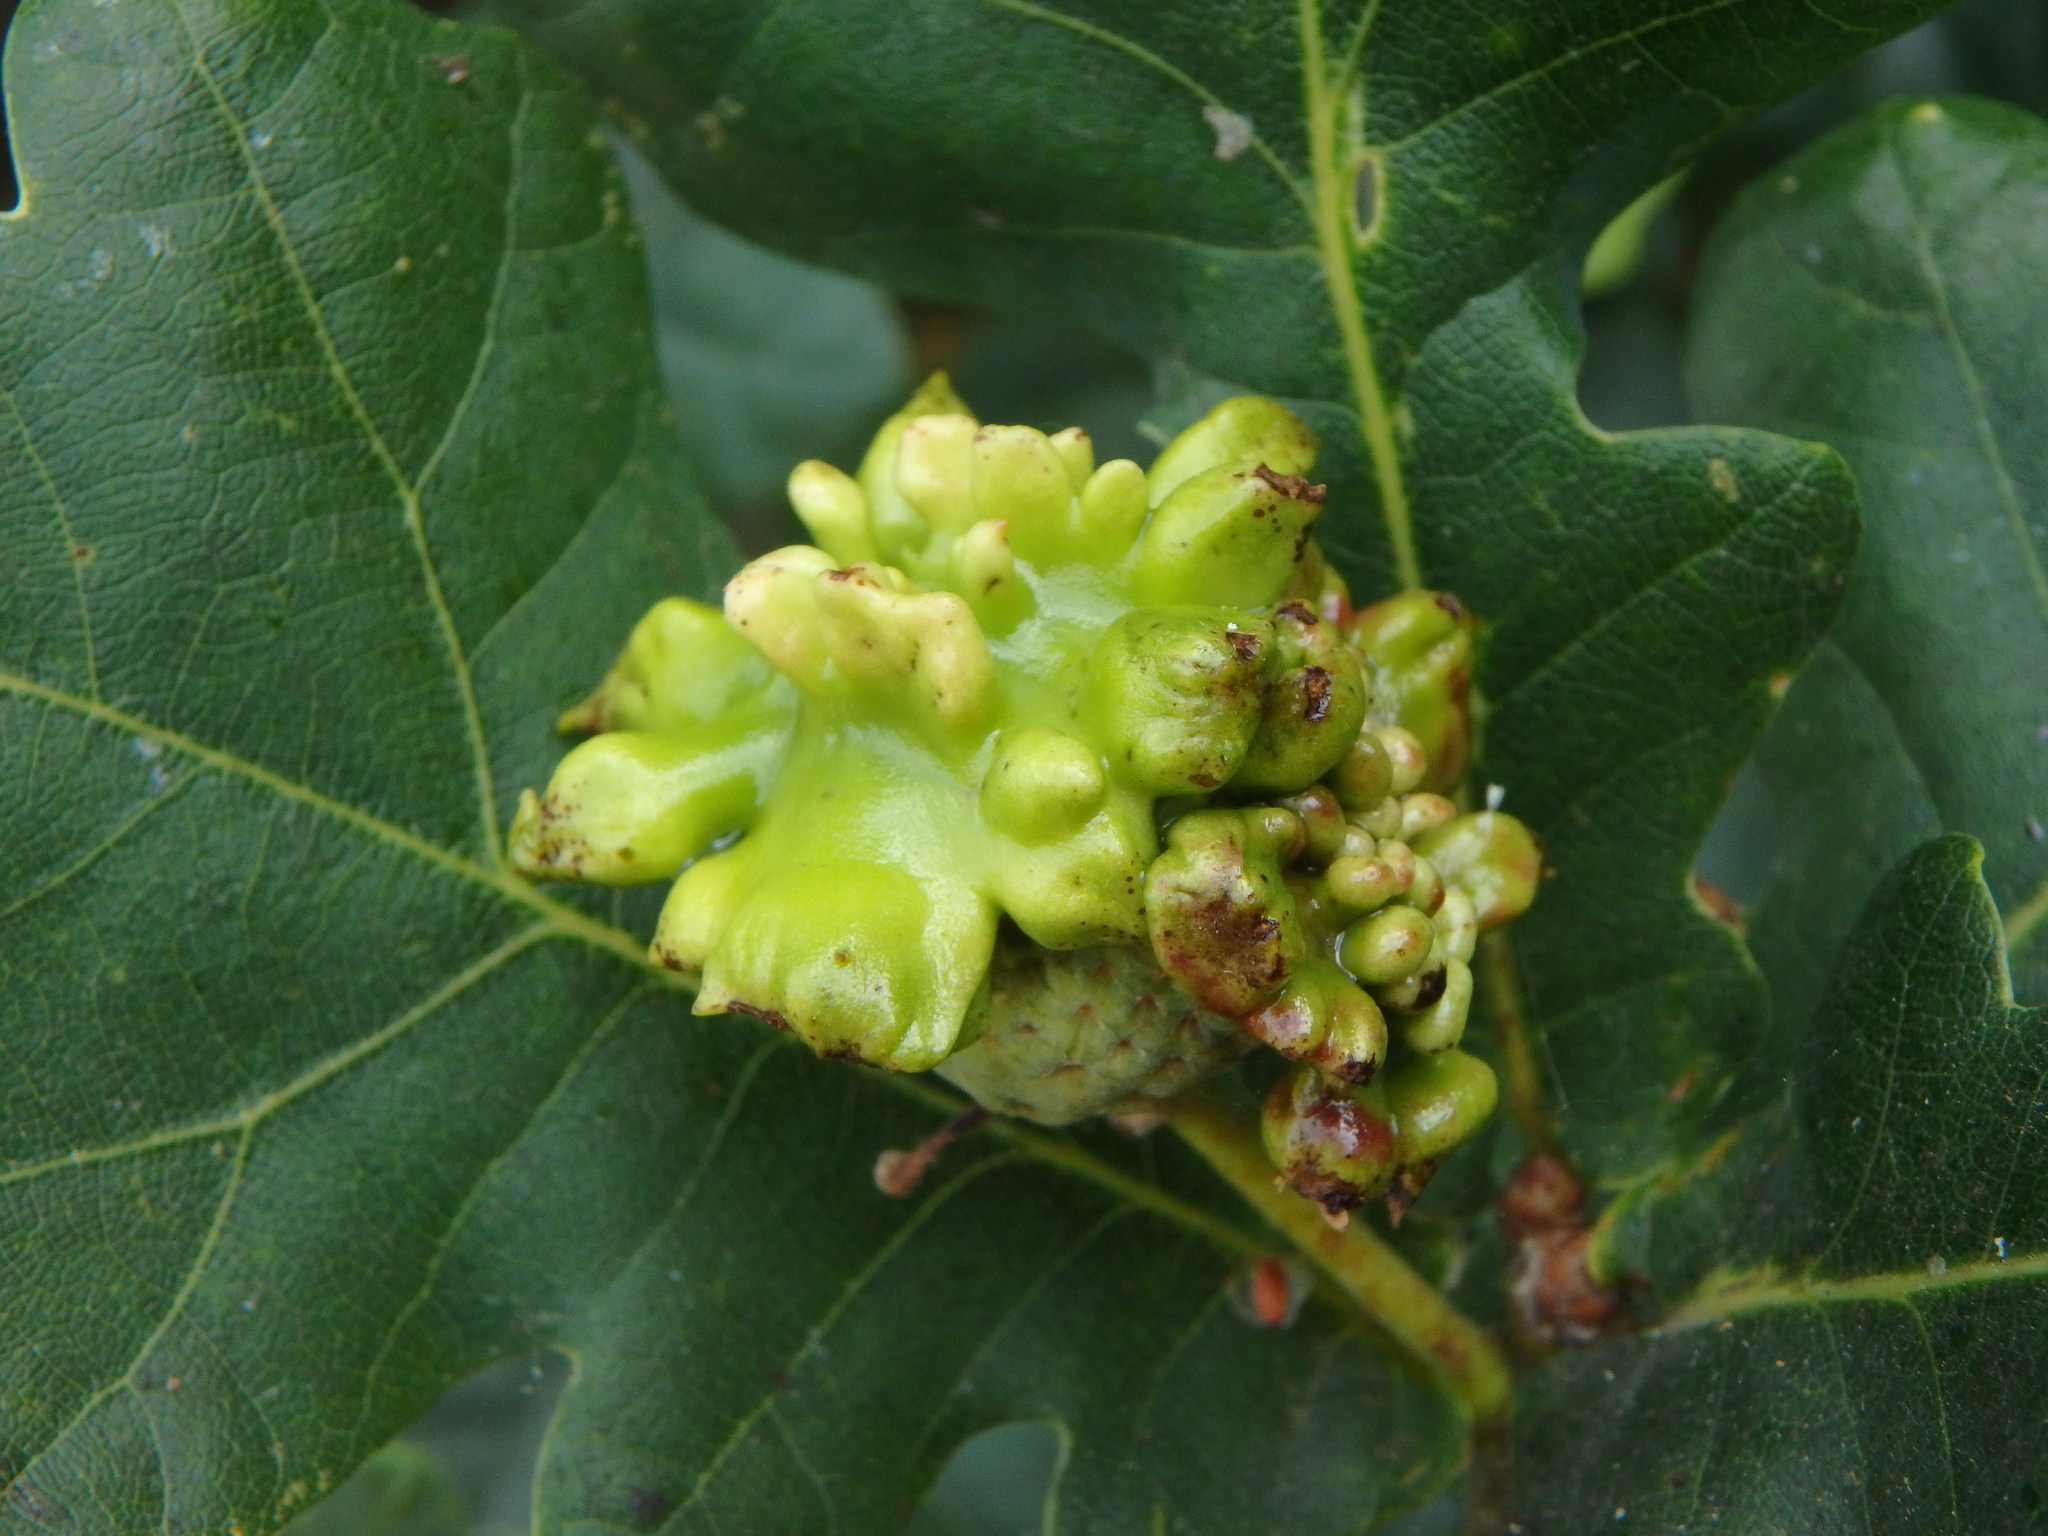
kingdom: Animalia
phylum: Arthropoda
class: Insecta
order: Hymenoptera
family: Cynipidae
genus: Andricus
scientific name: Andricus quercuscalicis
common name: Knopper gall
